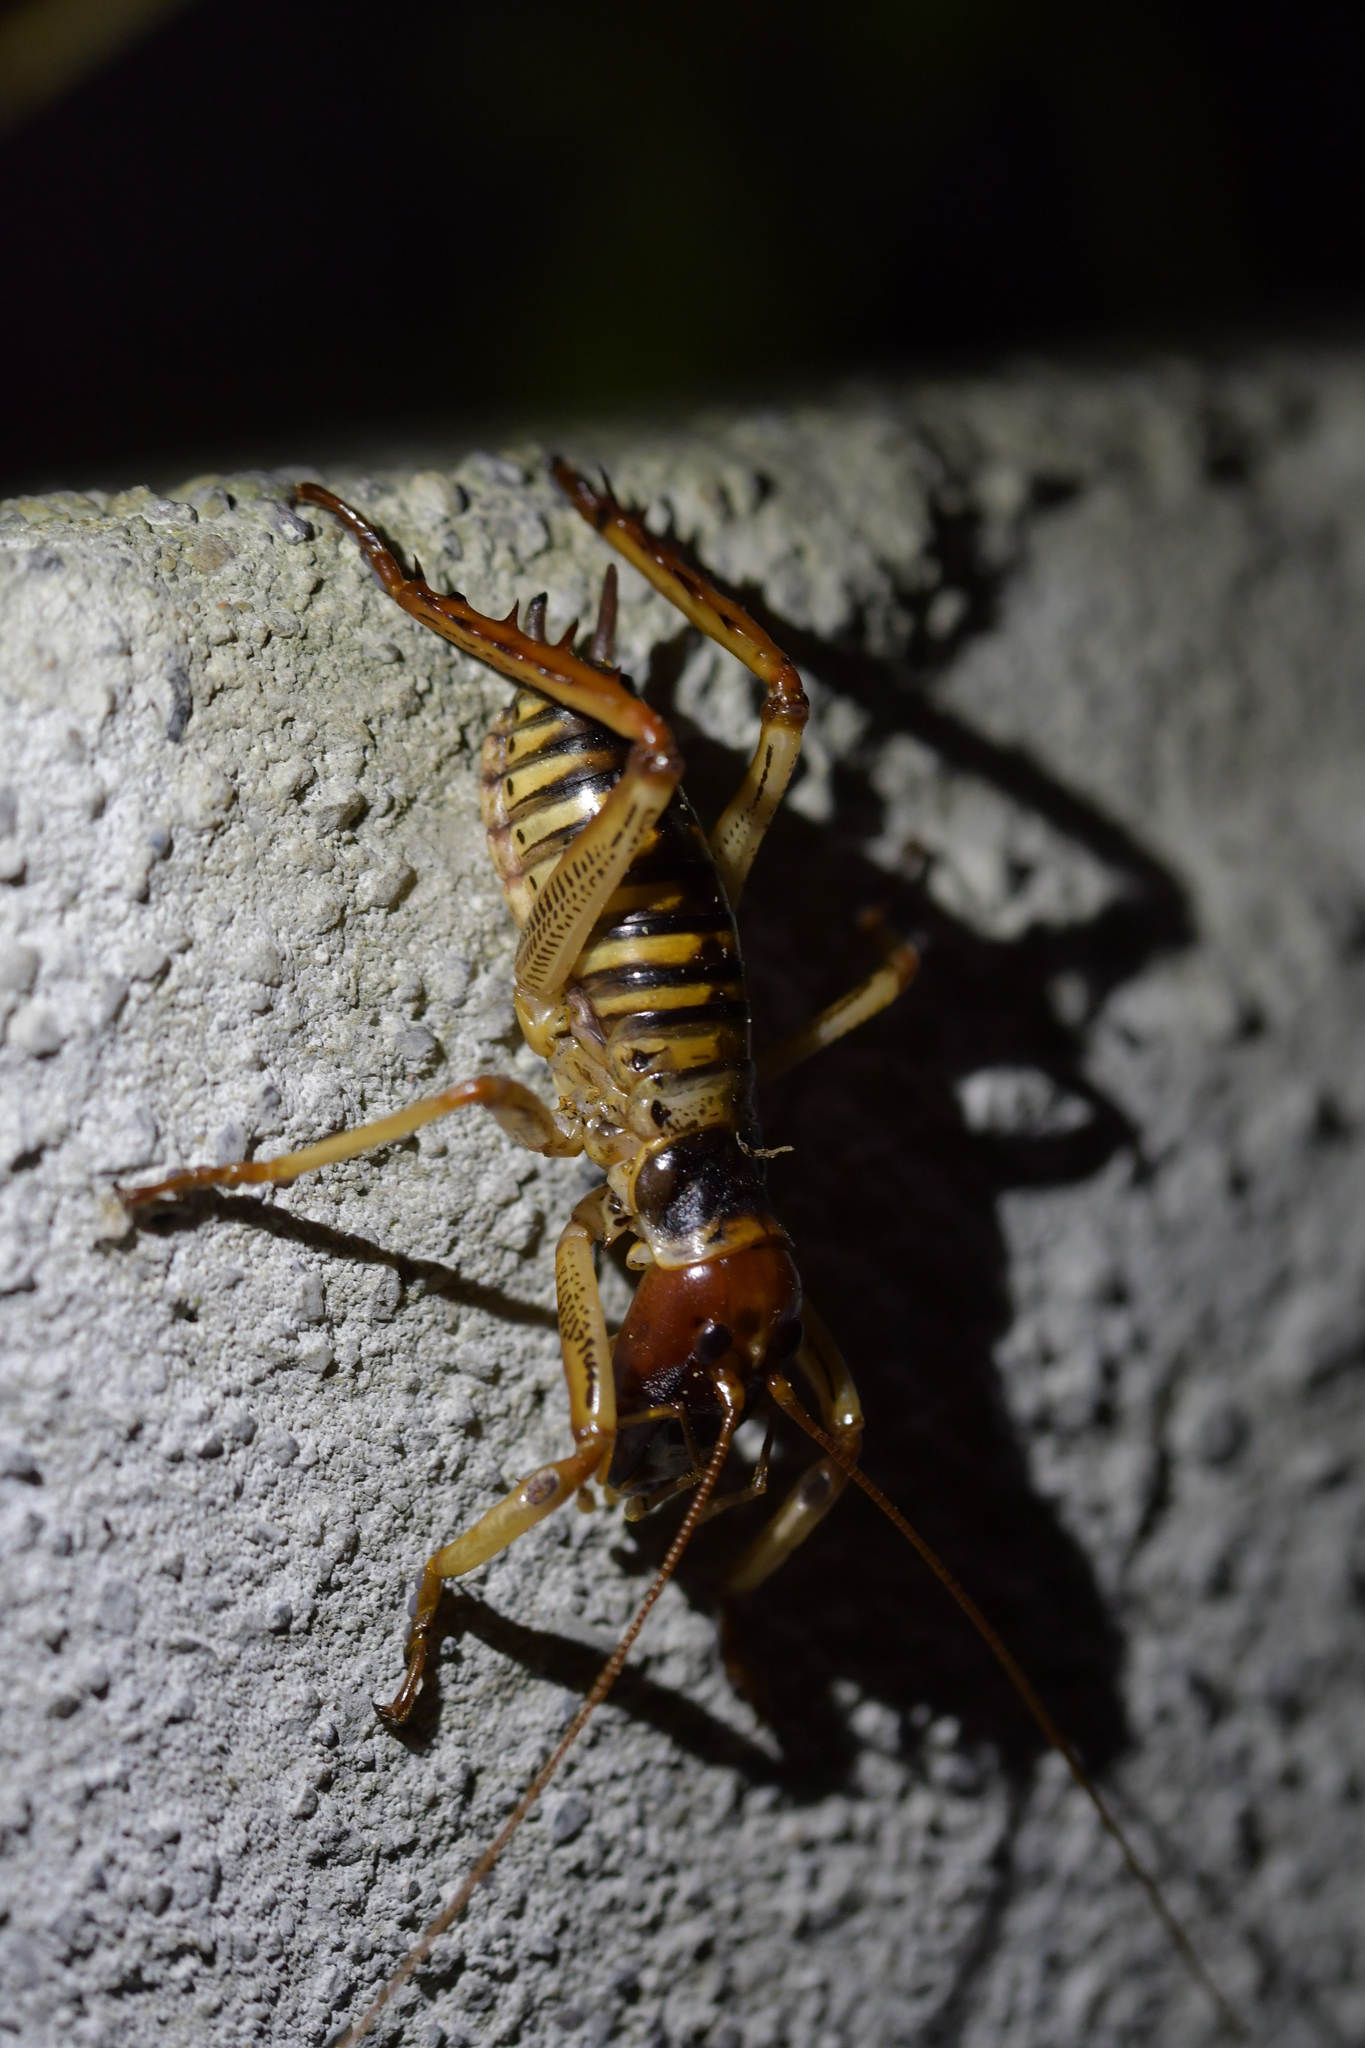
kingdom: Animalia
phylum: Arthropoda
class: Insecta
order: Orthoptera
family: Anostostomatidae
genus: Hemideina
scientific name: Hemideina crassidens
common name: Wellington tree weta
